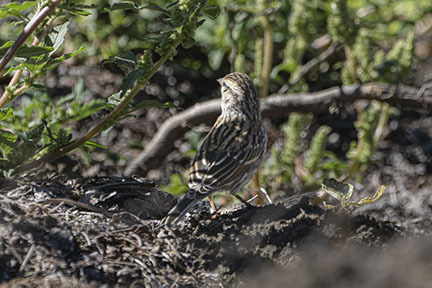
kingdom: Animalia
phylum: Chordata
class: Aves
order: Passeriformes
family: Passerellidae
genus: Spizella
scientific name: Spizella passerina
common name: Chipping sparrow
